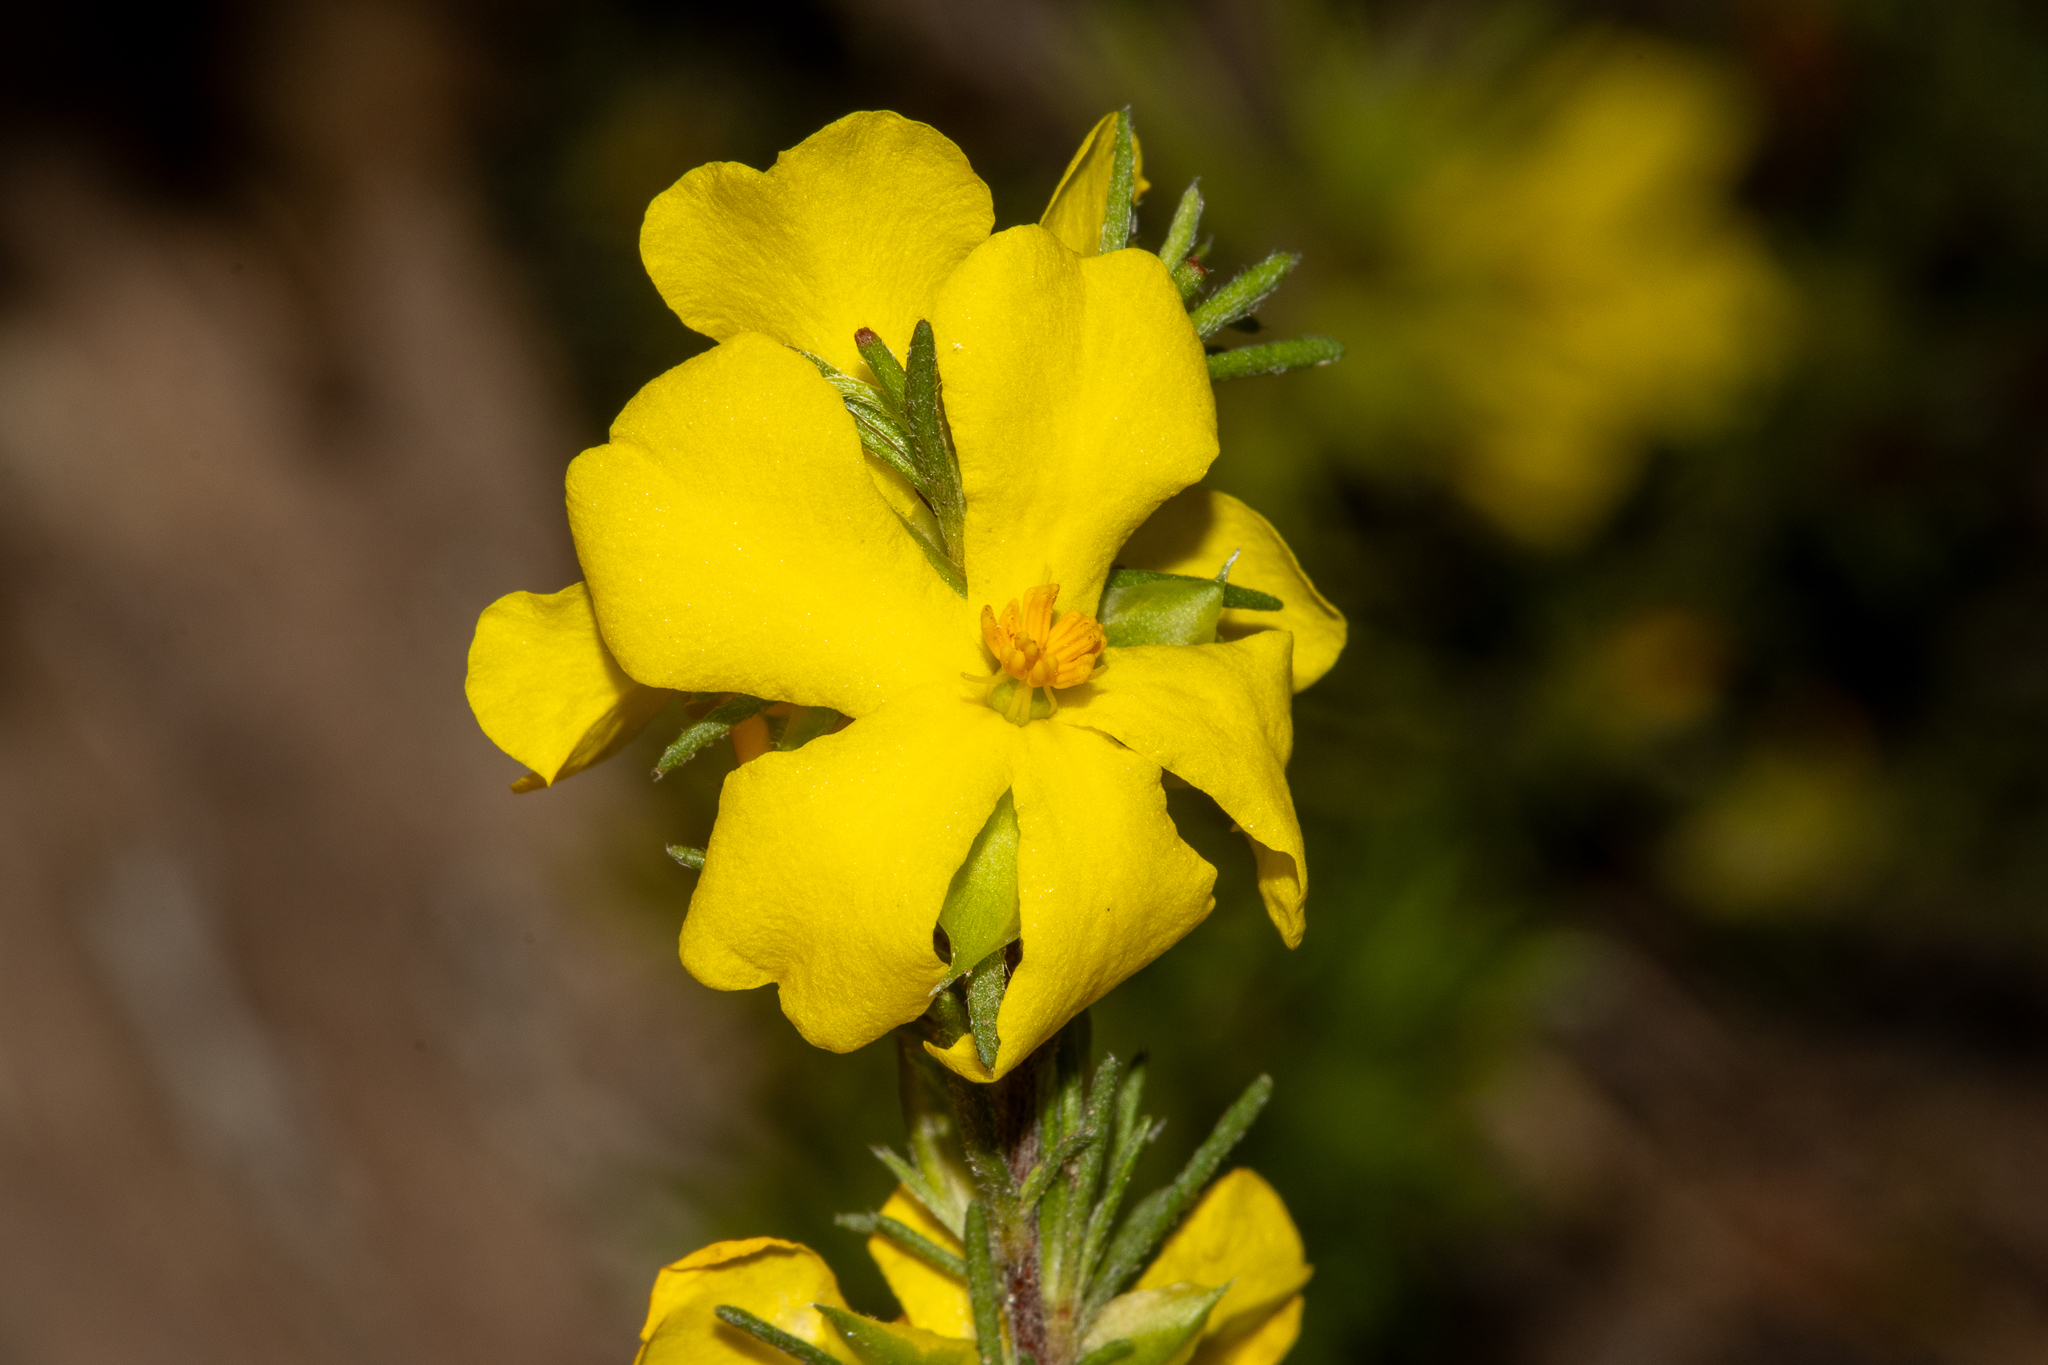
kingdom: Plantae
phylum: Tracheophyta
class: Magnoliopsida
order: Dilleniales
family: Dilleniaceae
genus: Hibbertia
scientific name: Hibbertia fasciculata
